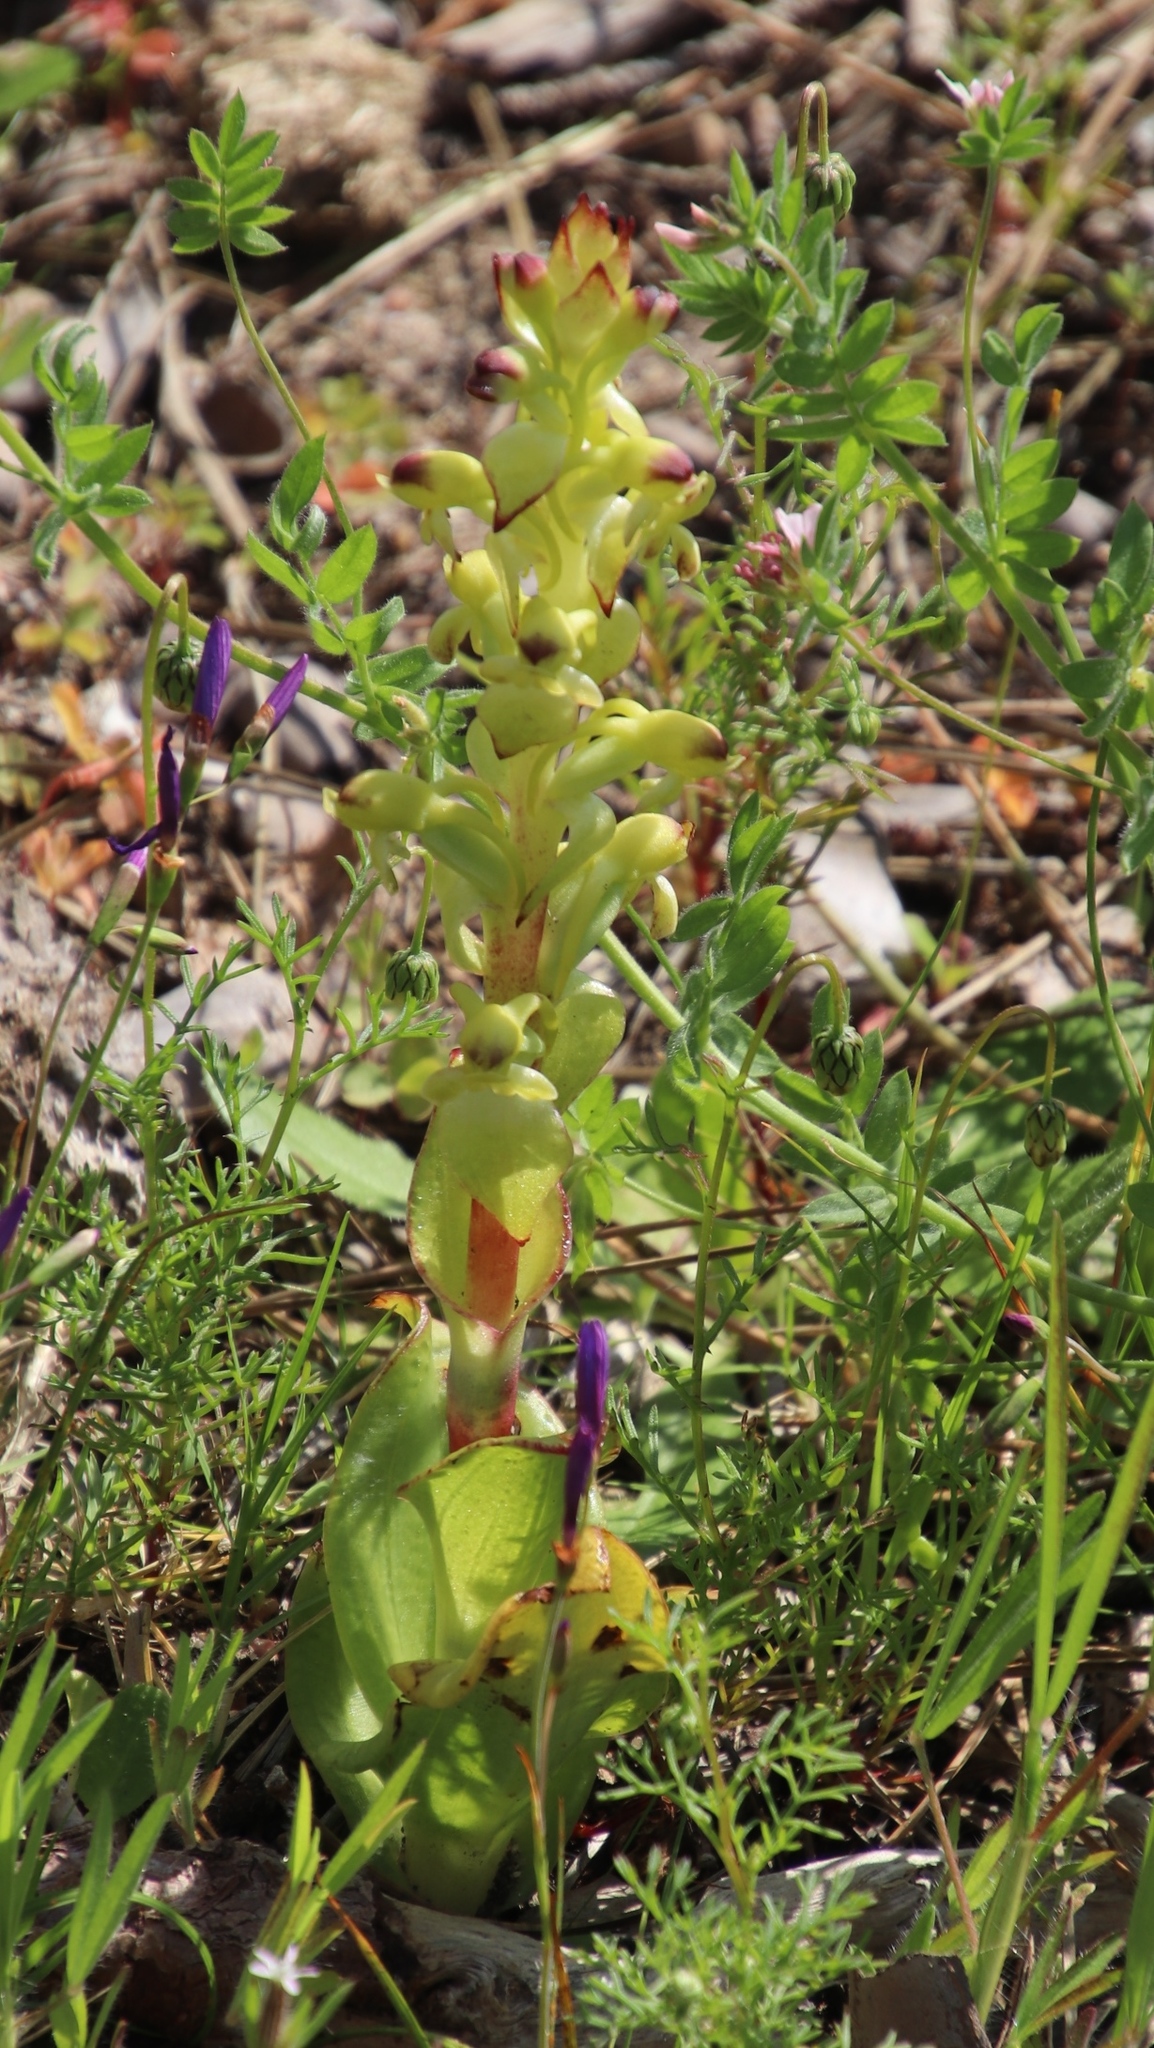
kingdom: Plantae
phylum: Tracheophyta
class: Liliopsida
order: Asparagales
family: Orchidaceae
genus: Satyrium
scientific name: Satyrium odorum
